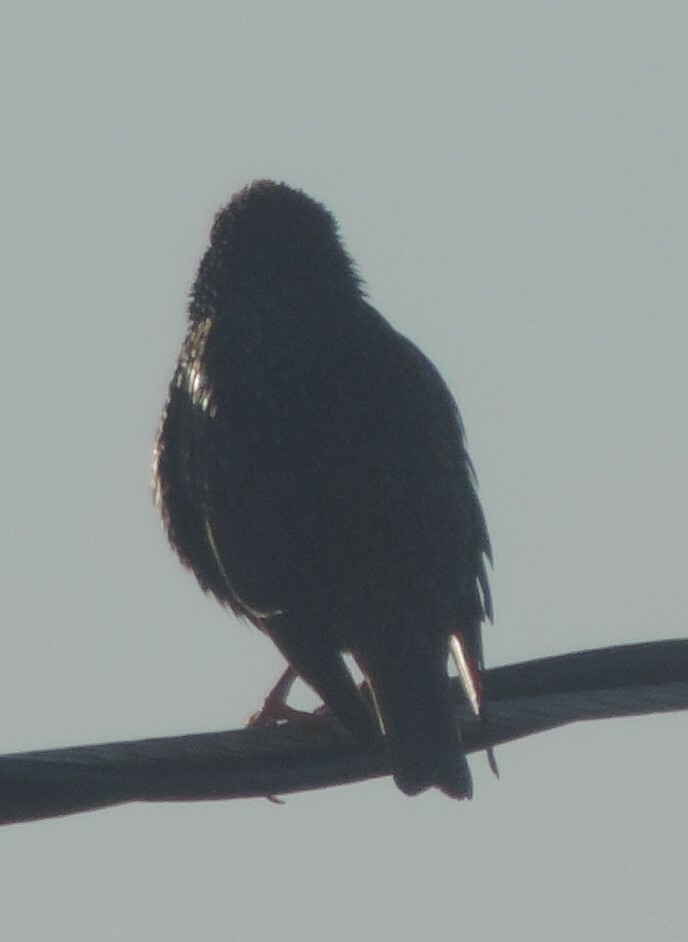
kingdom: Animalia
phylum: Chordata
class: Aves
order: Passeriformes
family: Sturnidae
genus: Sturnus
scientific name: Sturnus vulgaris
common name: Common starling
